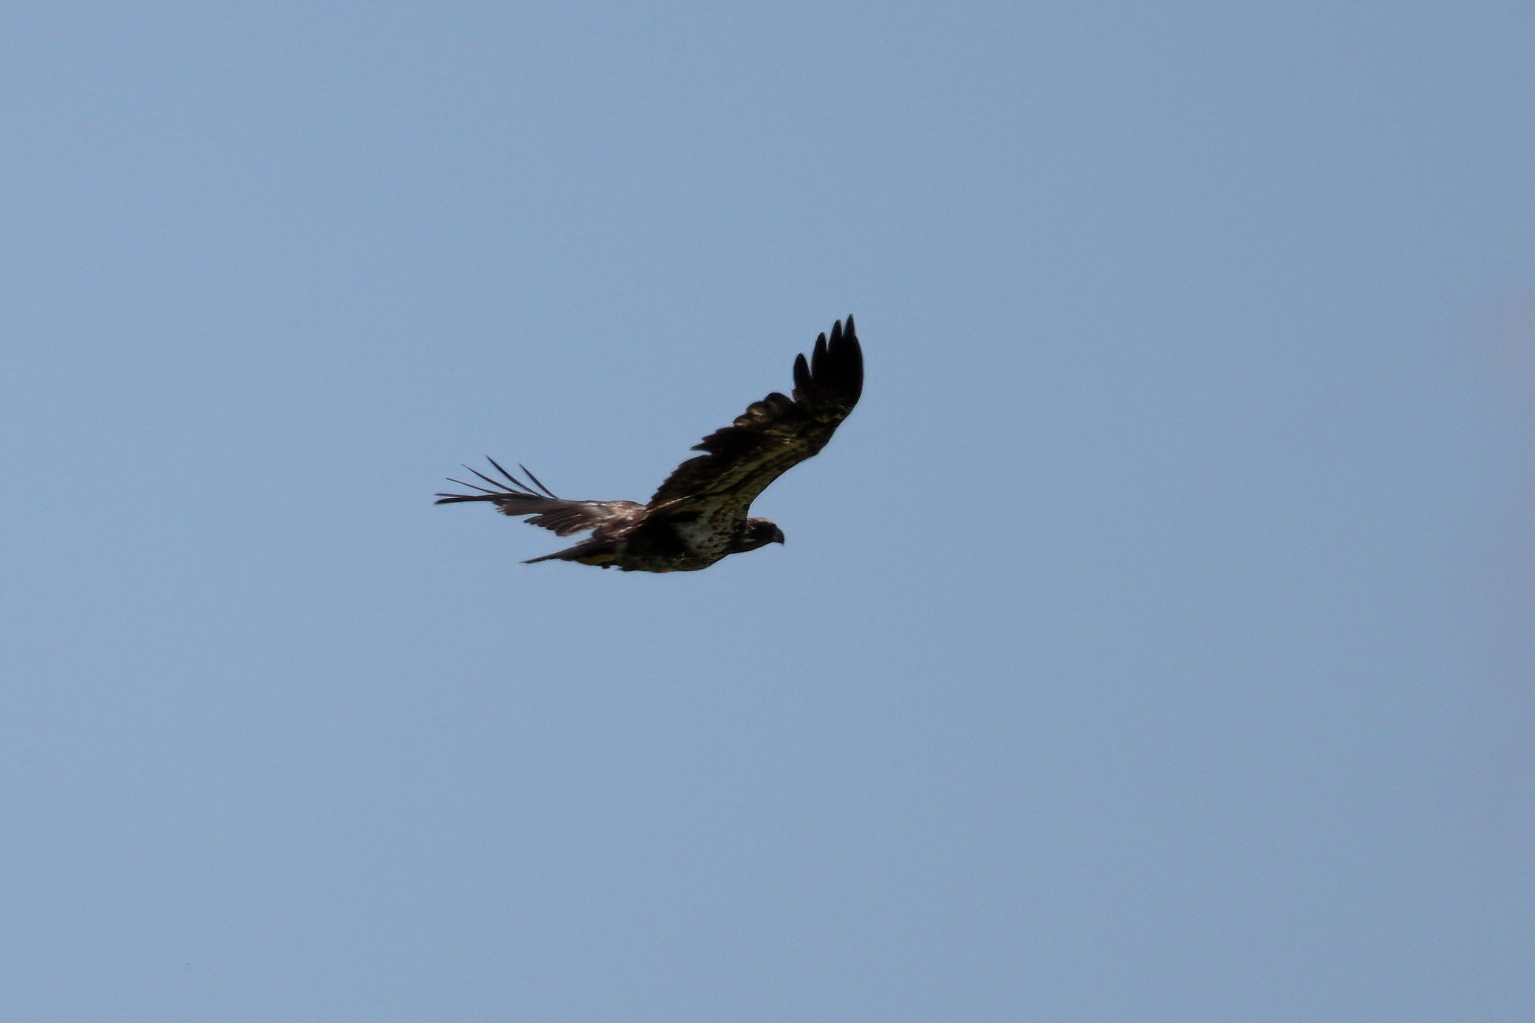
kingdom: Animalia
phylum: Chordata
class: Aves
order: Accipitriformes
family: Accipitridae
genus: Haliaeetus
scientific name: Haliaeetus leucocephalus
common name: Bald eagle
